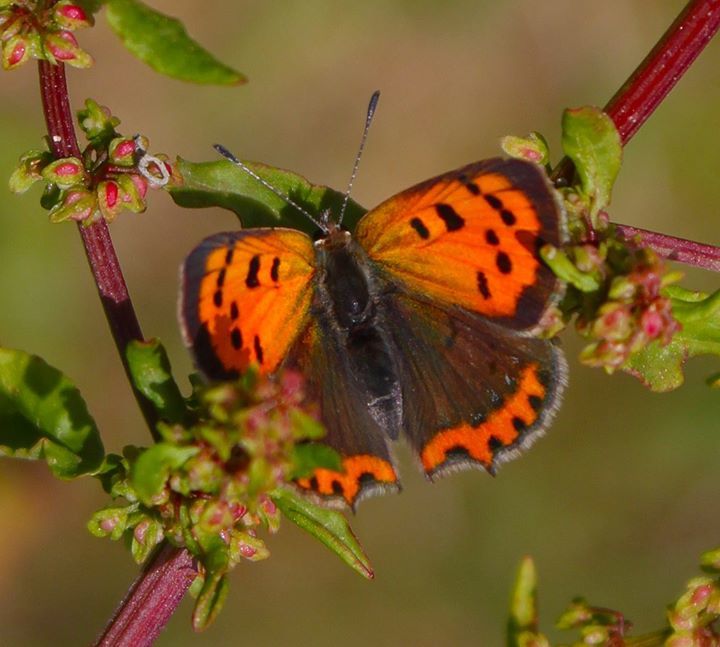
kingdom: Animalia
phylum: Arthropoda
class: Insecta
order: Lepidoptera
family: Lycaenidae
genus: Lycaena
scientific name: Lycaena phlaeas
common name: Small copper
